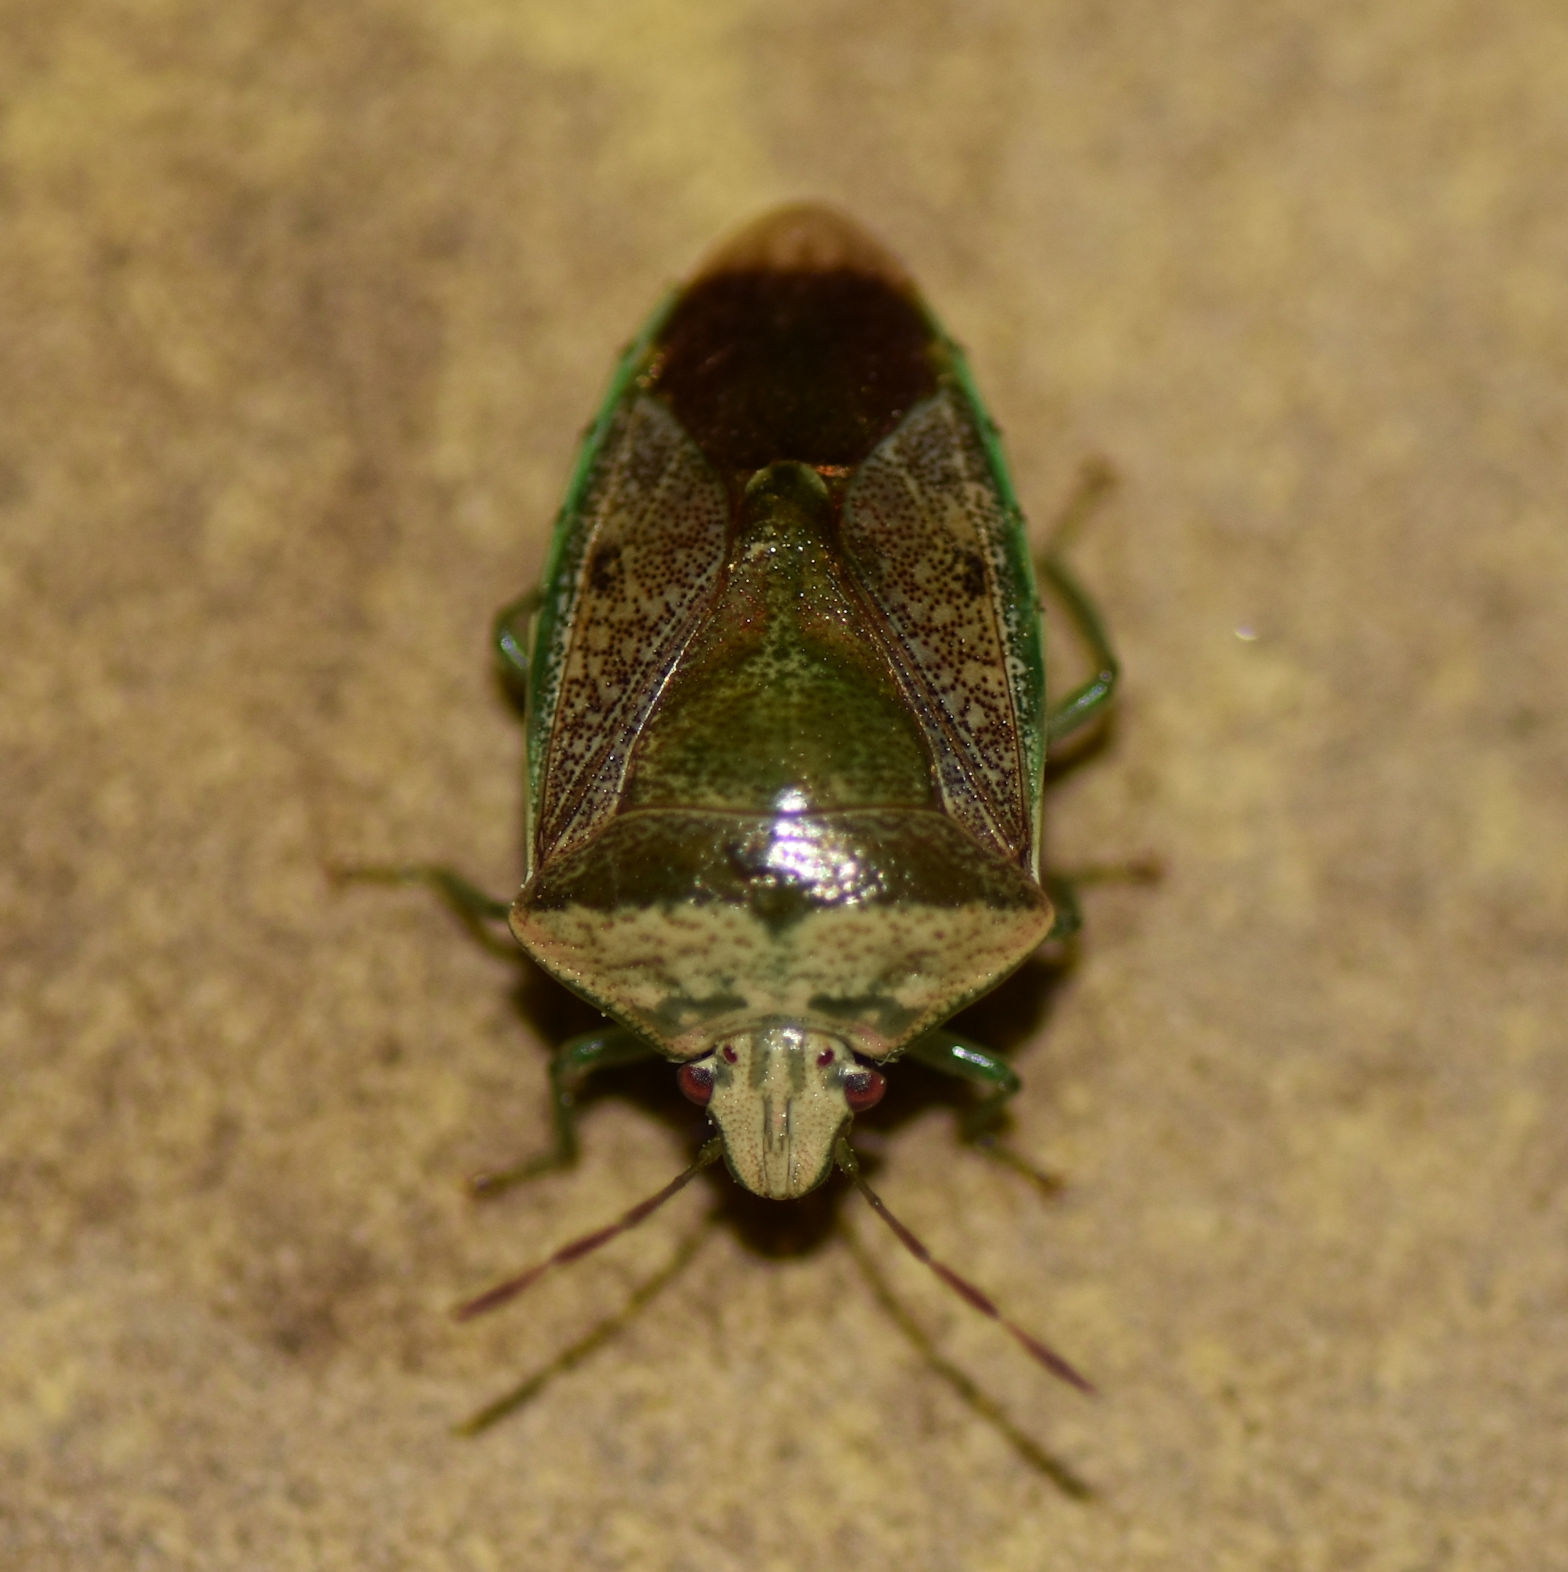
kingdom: Animalia
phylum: Arthropoda
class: Insecta
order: Hemiptera
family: Pentatomidae
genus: Banasa
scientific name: Banasa calva
